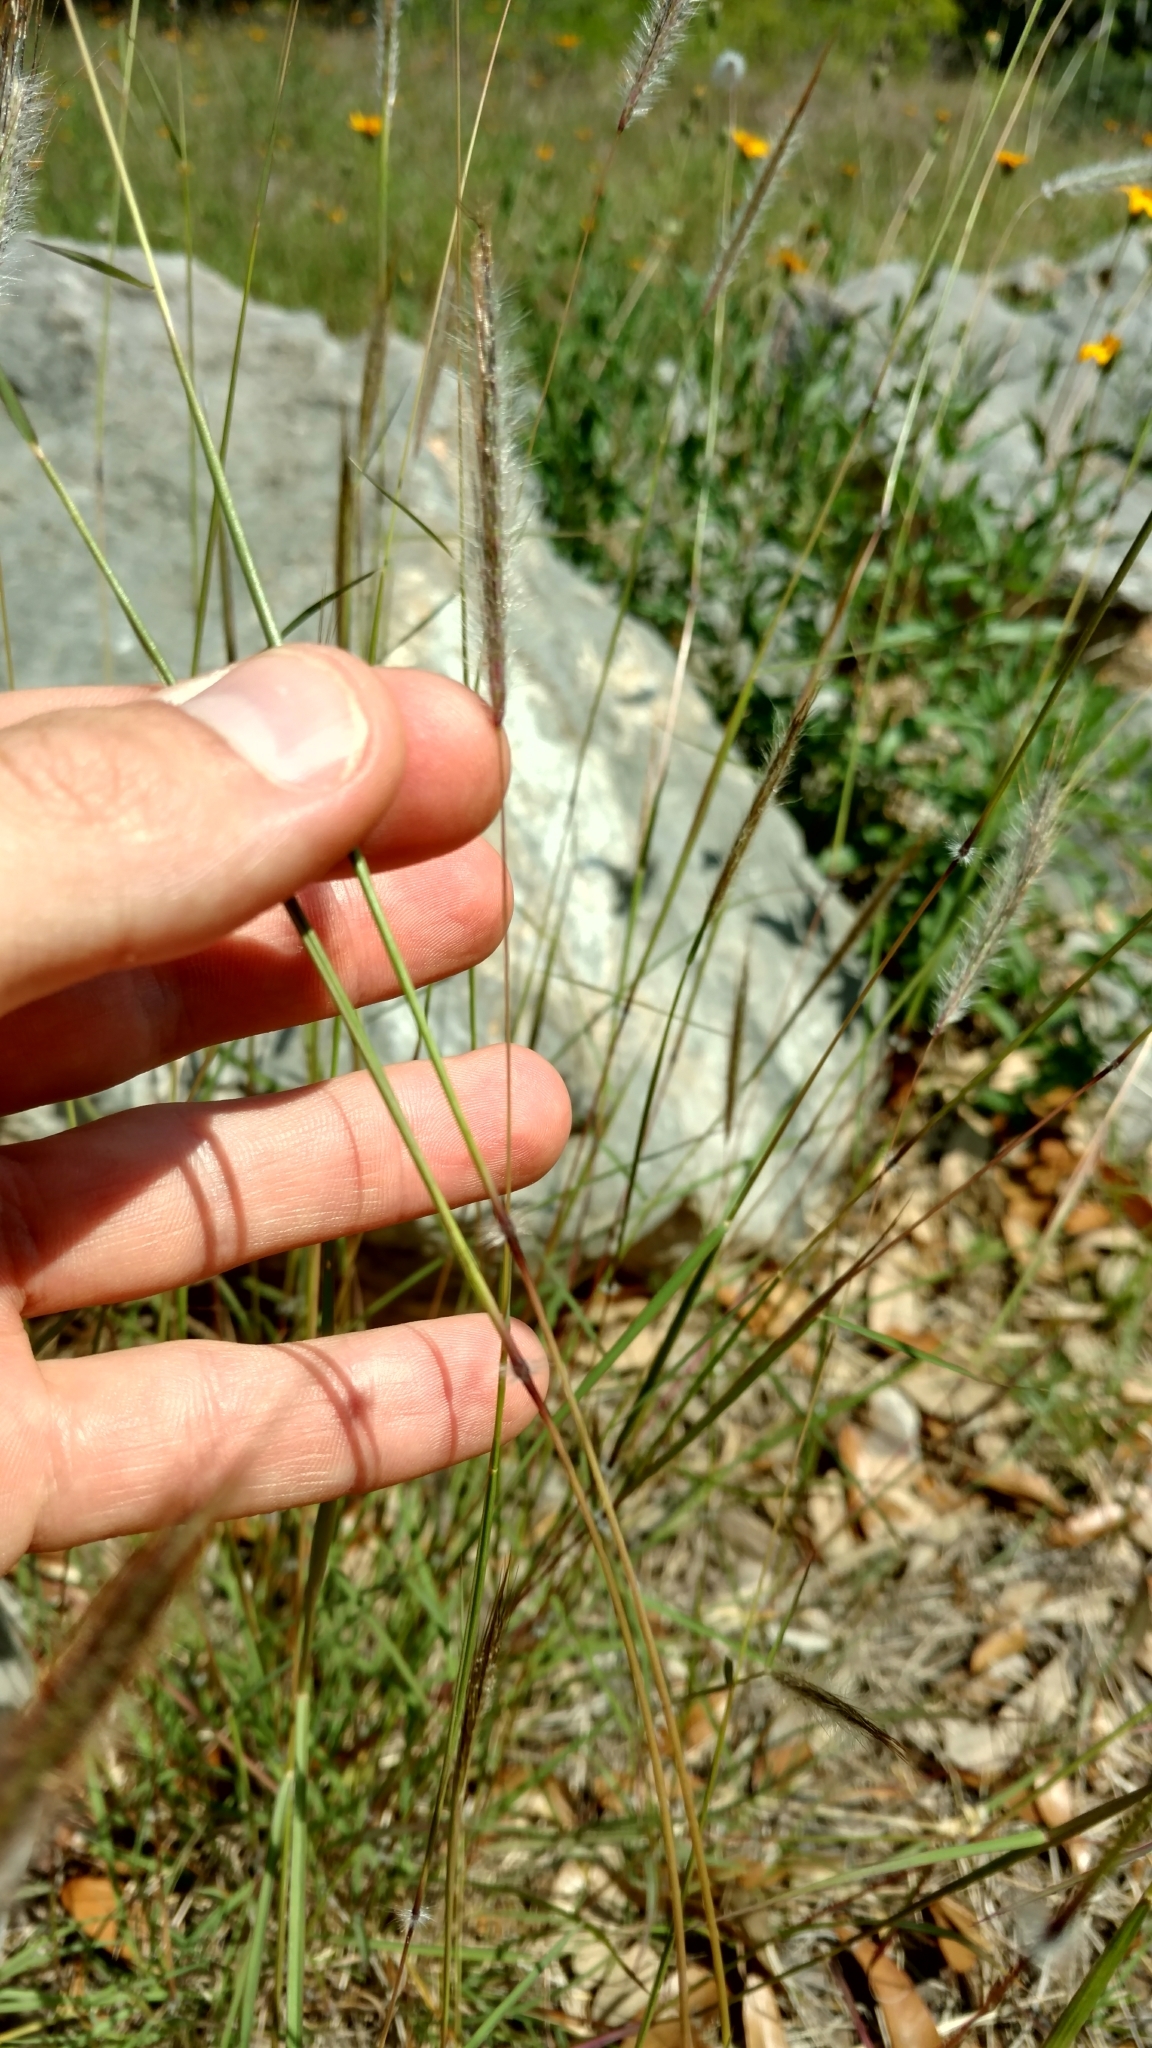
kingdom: Plantae
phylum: Tracheophyta
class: Liliopsida
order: Poales
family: Poaceae
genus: Dichanthium
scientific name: Dichanthium sericeum
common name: Silky bluestem
